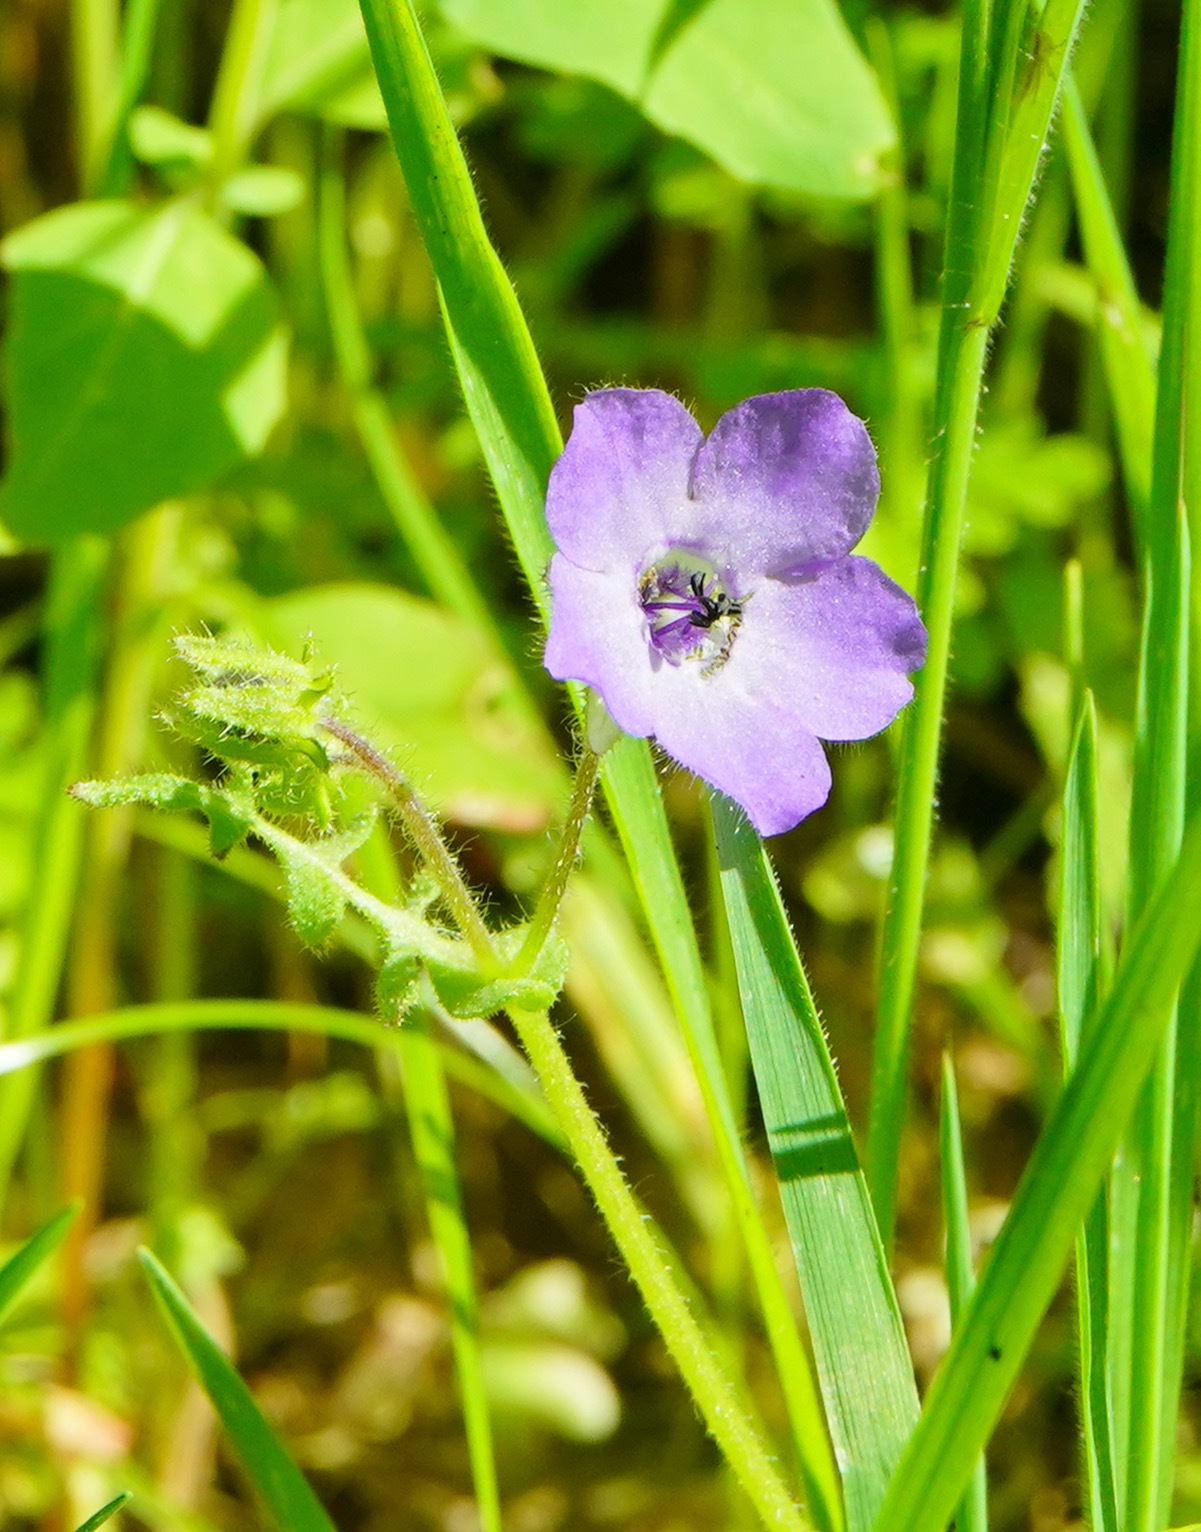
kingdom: Plantae
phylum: Tracheophyta
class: Magnoliopsida
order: Boraginales
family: Hydrophyllaceae
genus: Pholistoma
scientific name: Pholistoma auritum
